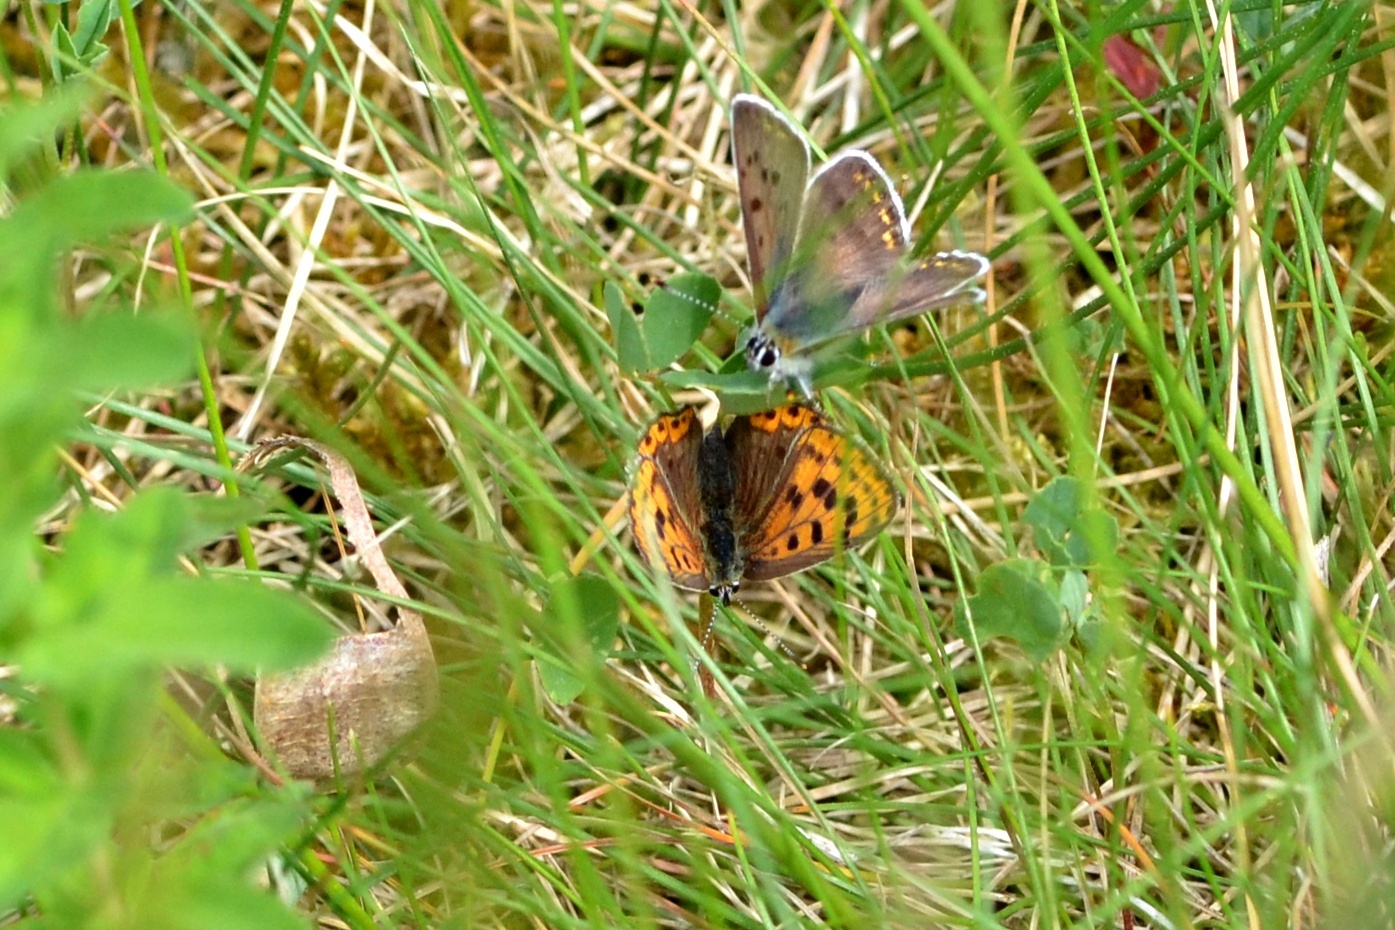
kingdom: Animalia
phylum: Arthropoda
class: Insecta
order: Lepidoptera
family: Lycaenidae
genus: Loweia
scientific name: Loweia tityrus
